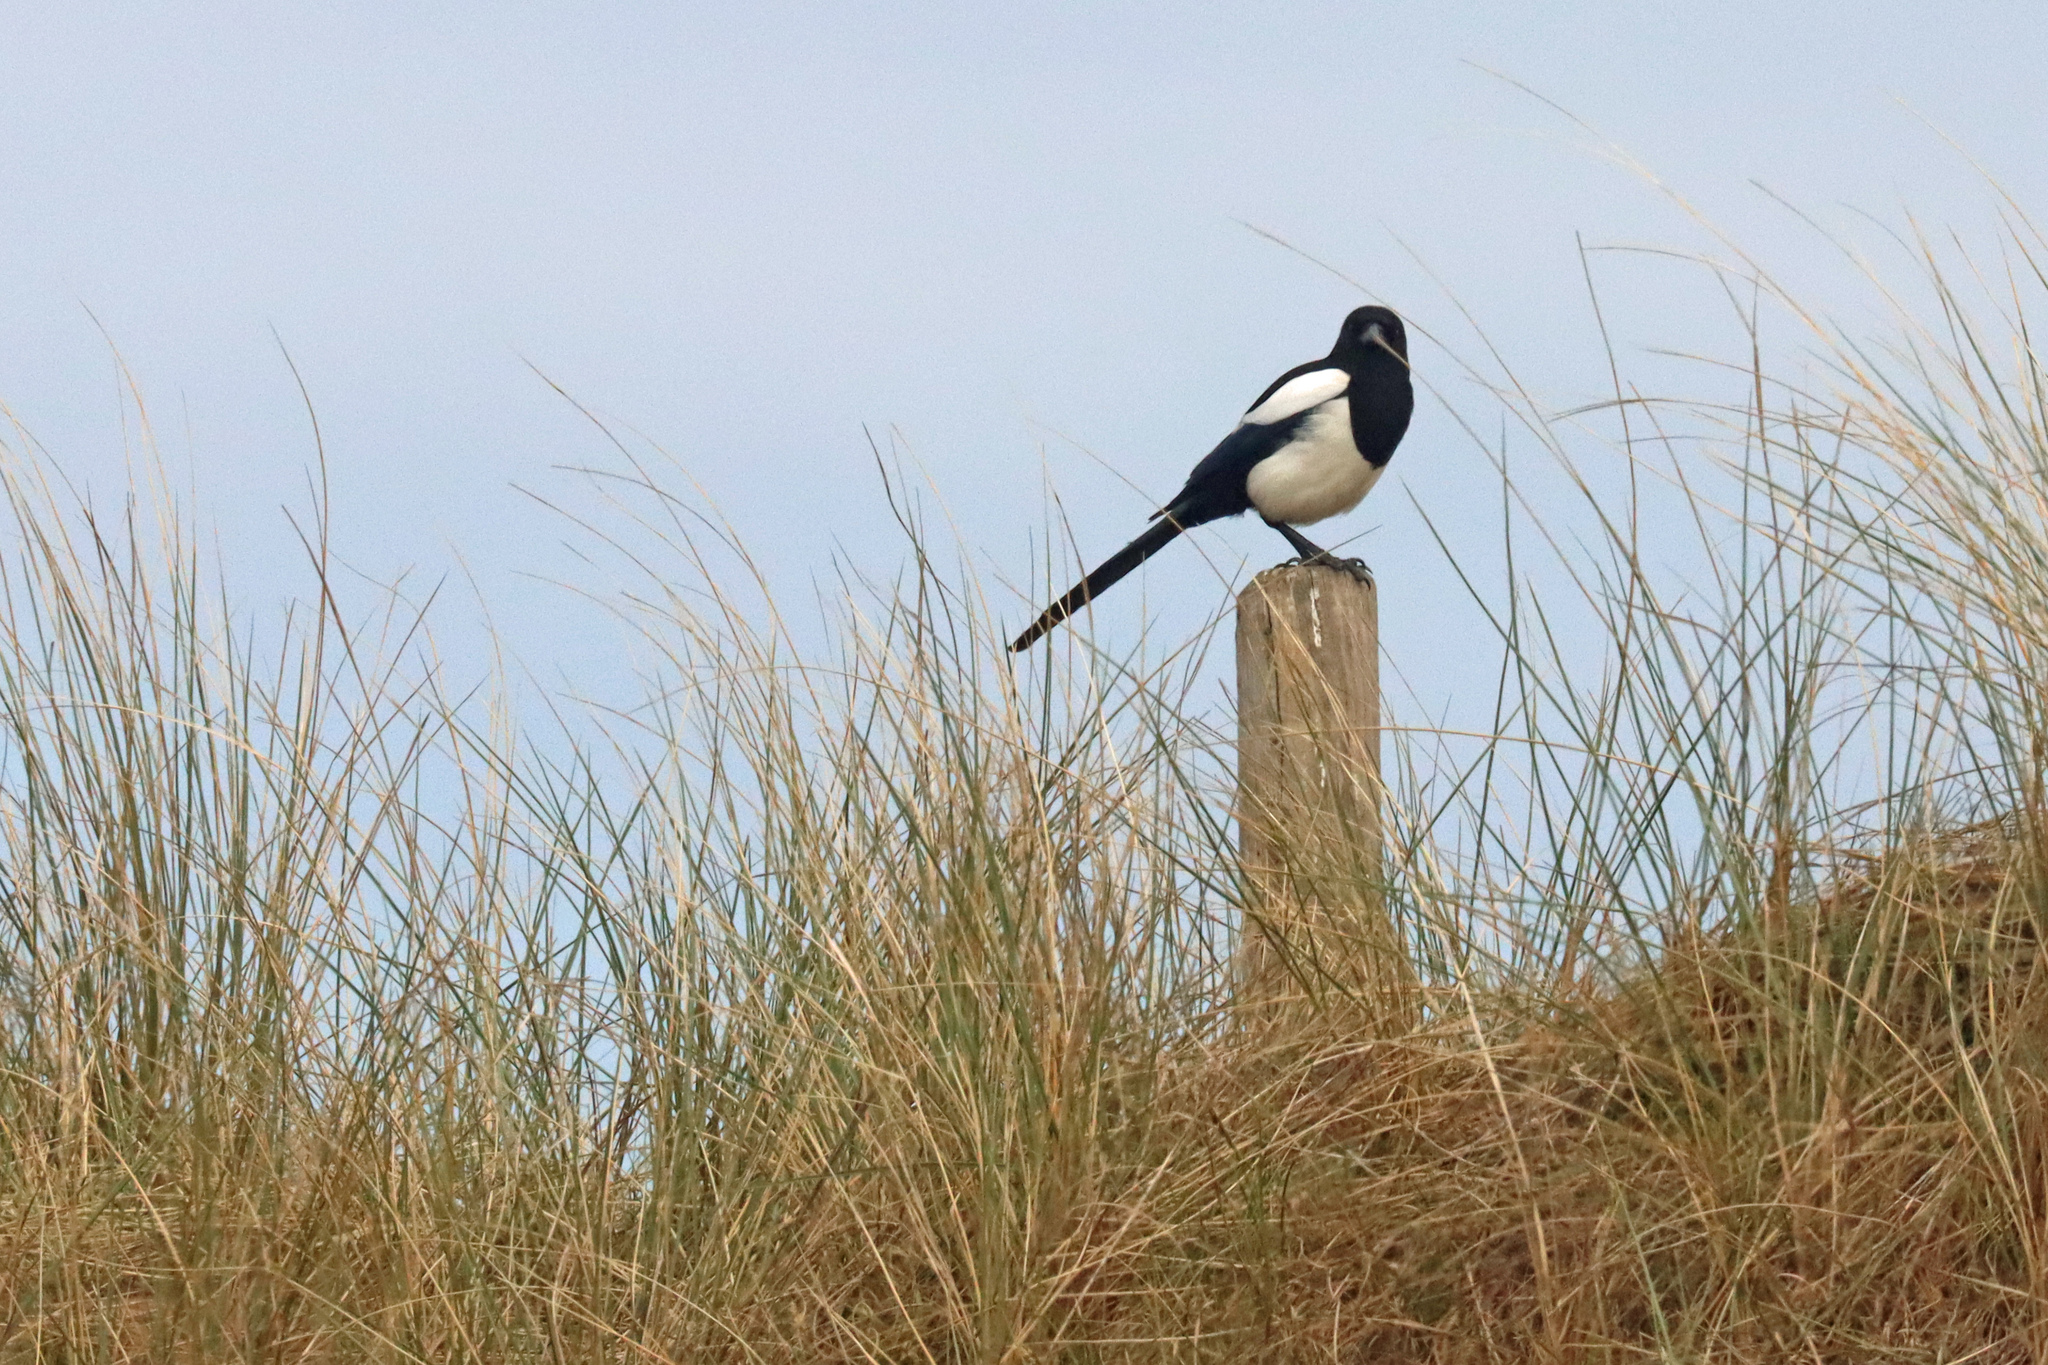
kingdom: Animalia
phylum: Chordata
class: Aves
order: Passeriformes
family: Corvidae
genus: Pica
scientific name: Pica pica
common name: Eurasian magpie
